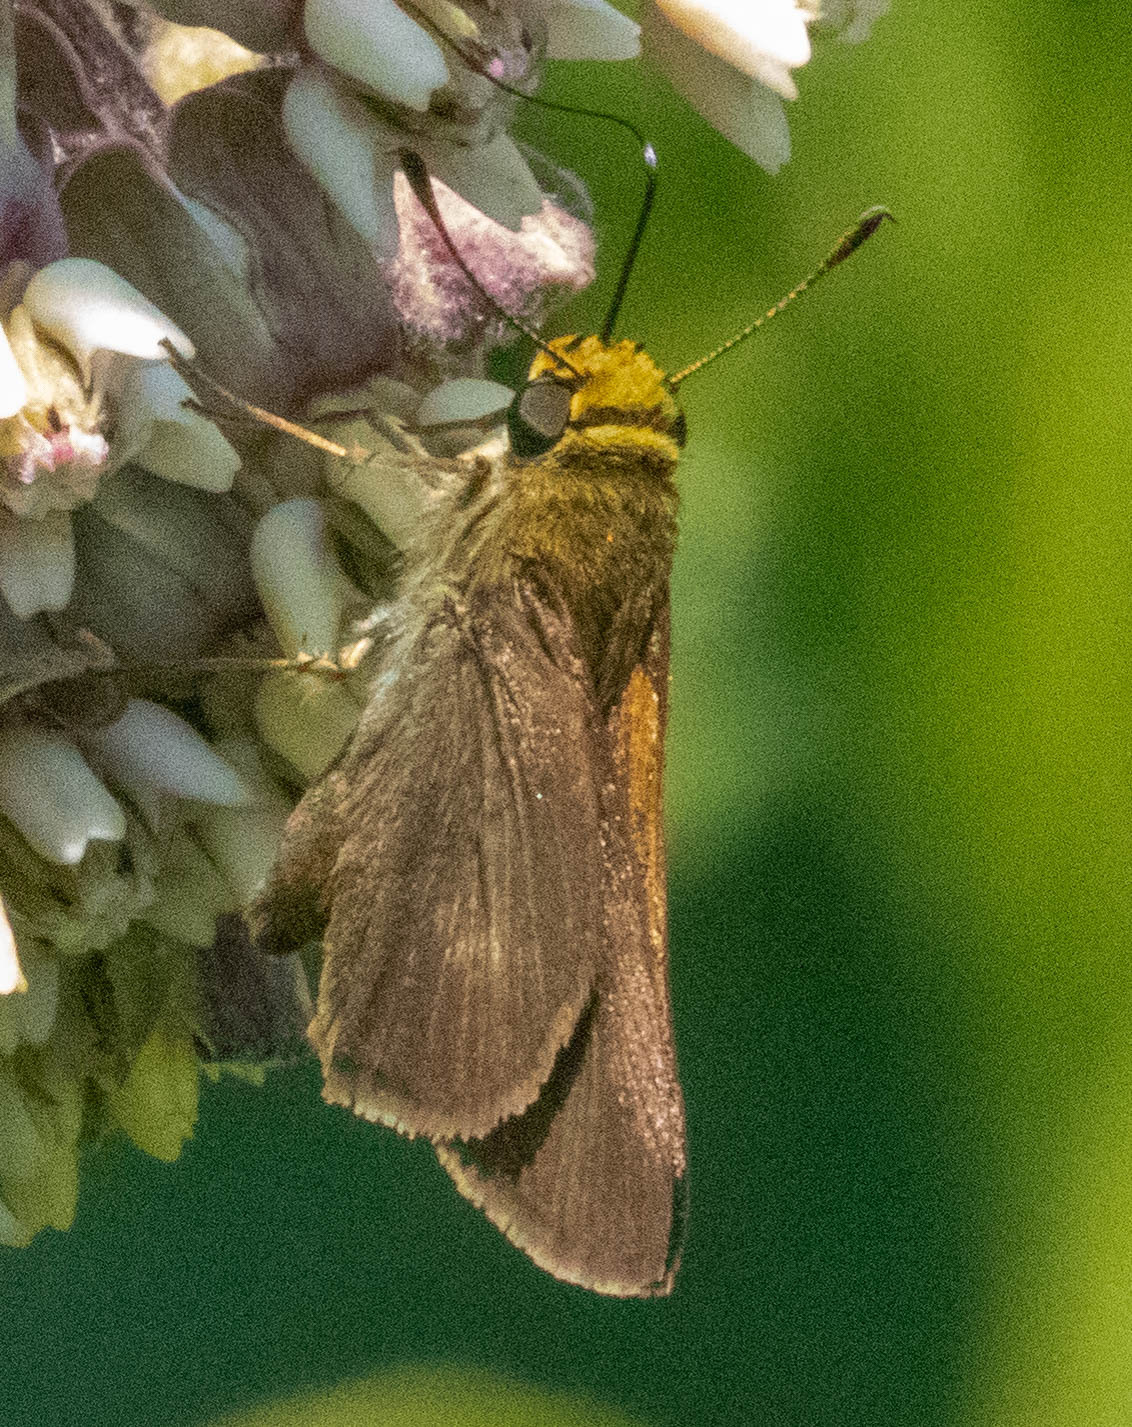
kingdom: Animalia
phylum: Arthropoda
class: Insecta
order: Lepidoptera
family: Hesperiidae
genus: Euphyes
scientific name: Euphyes vestris
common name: Dun skipper
